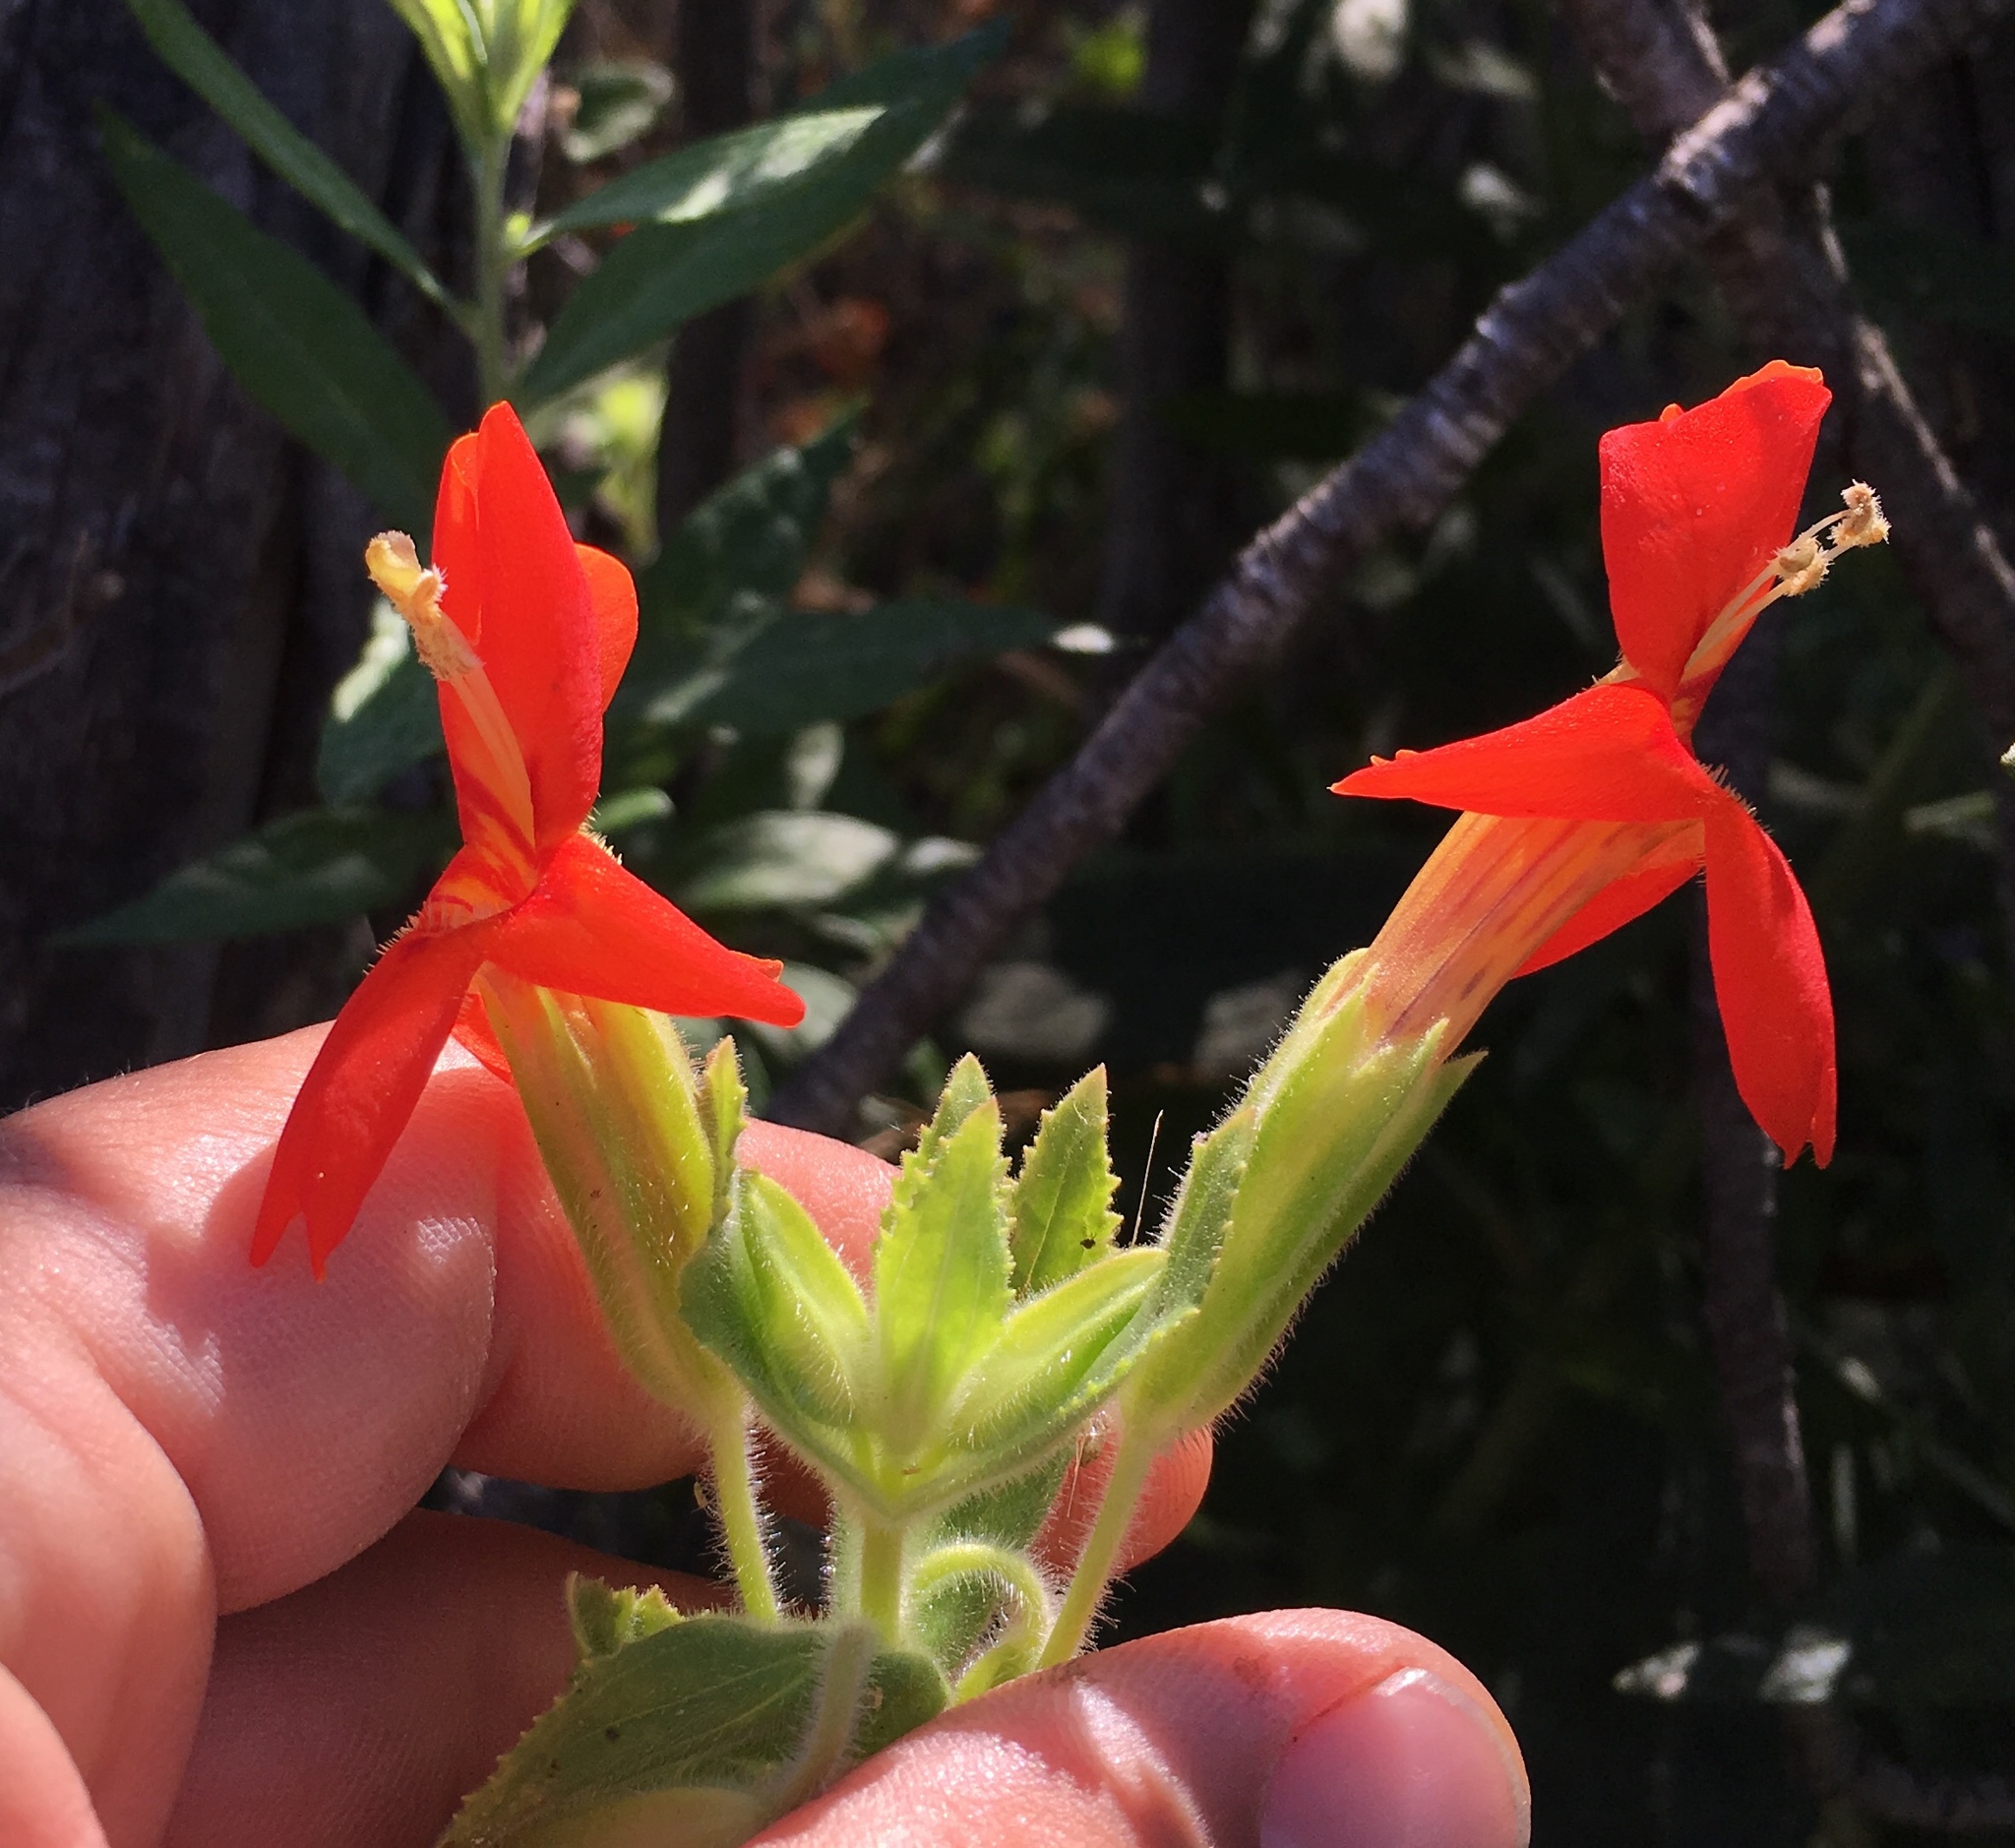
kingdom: Plantae
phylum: Tracheophyta
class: Magnoliopsida
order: Lamiales
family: Phrymaceae
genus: Erythranthe
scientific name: Erythranthe cardinalis
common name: Scarlet monkey-flower
